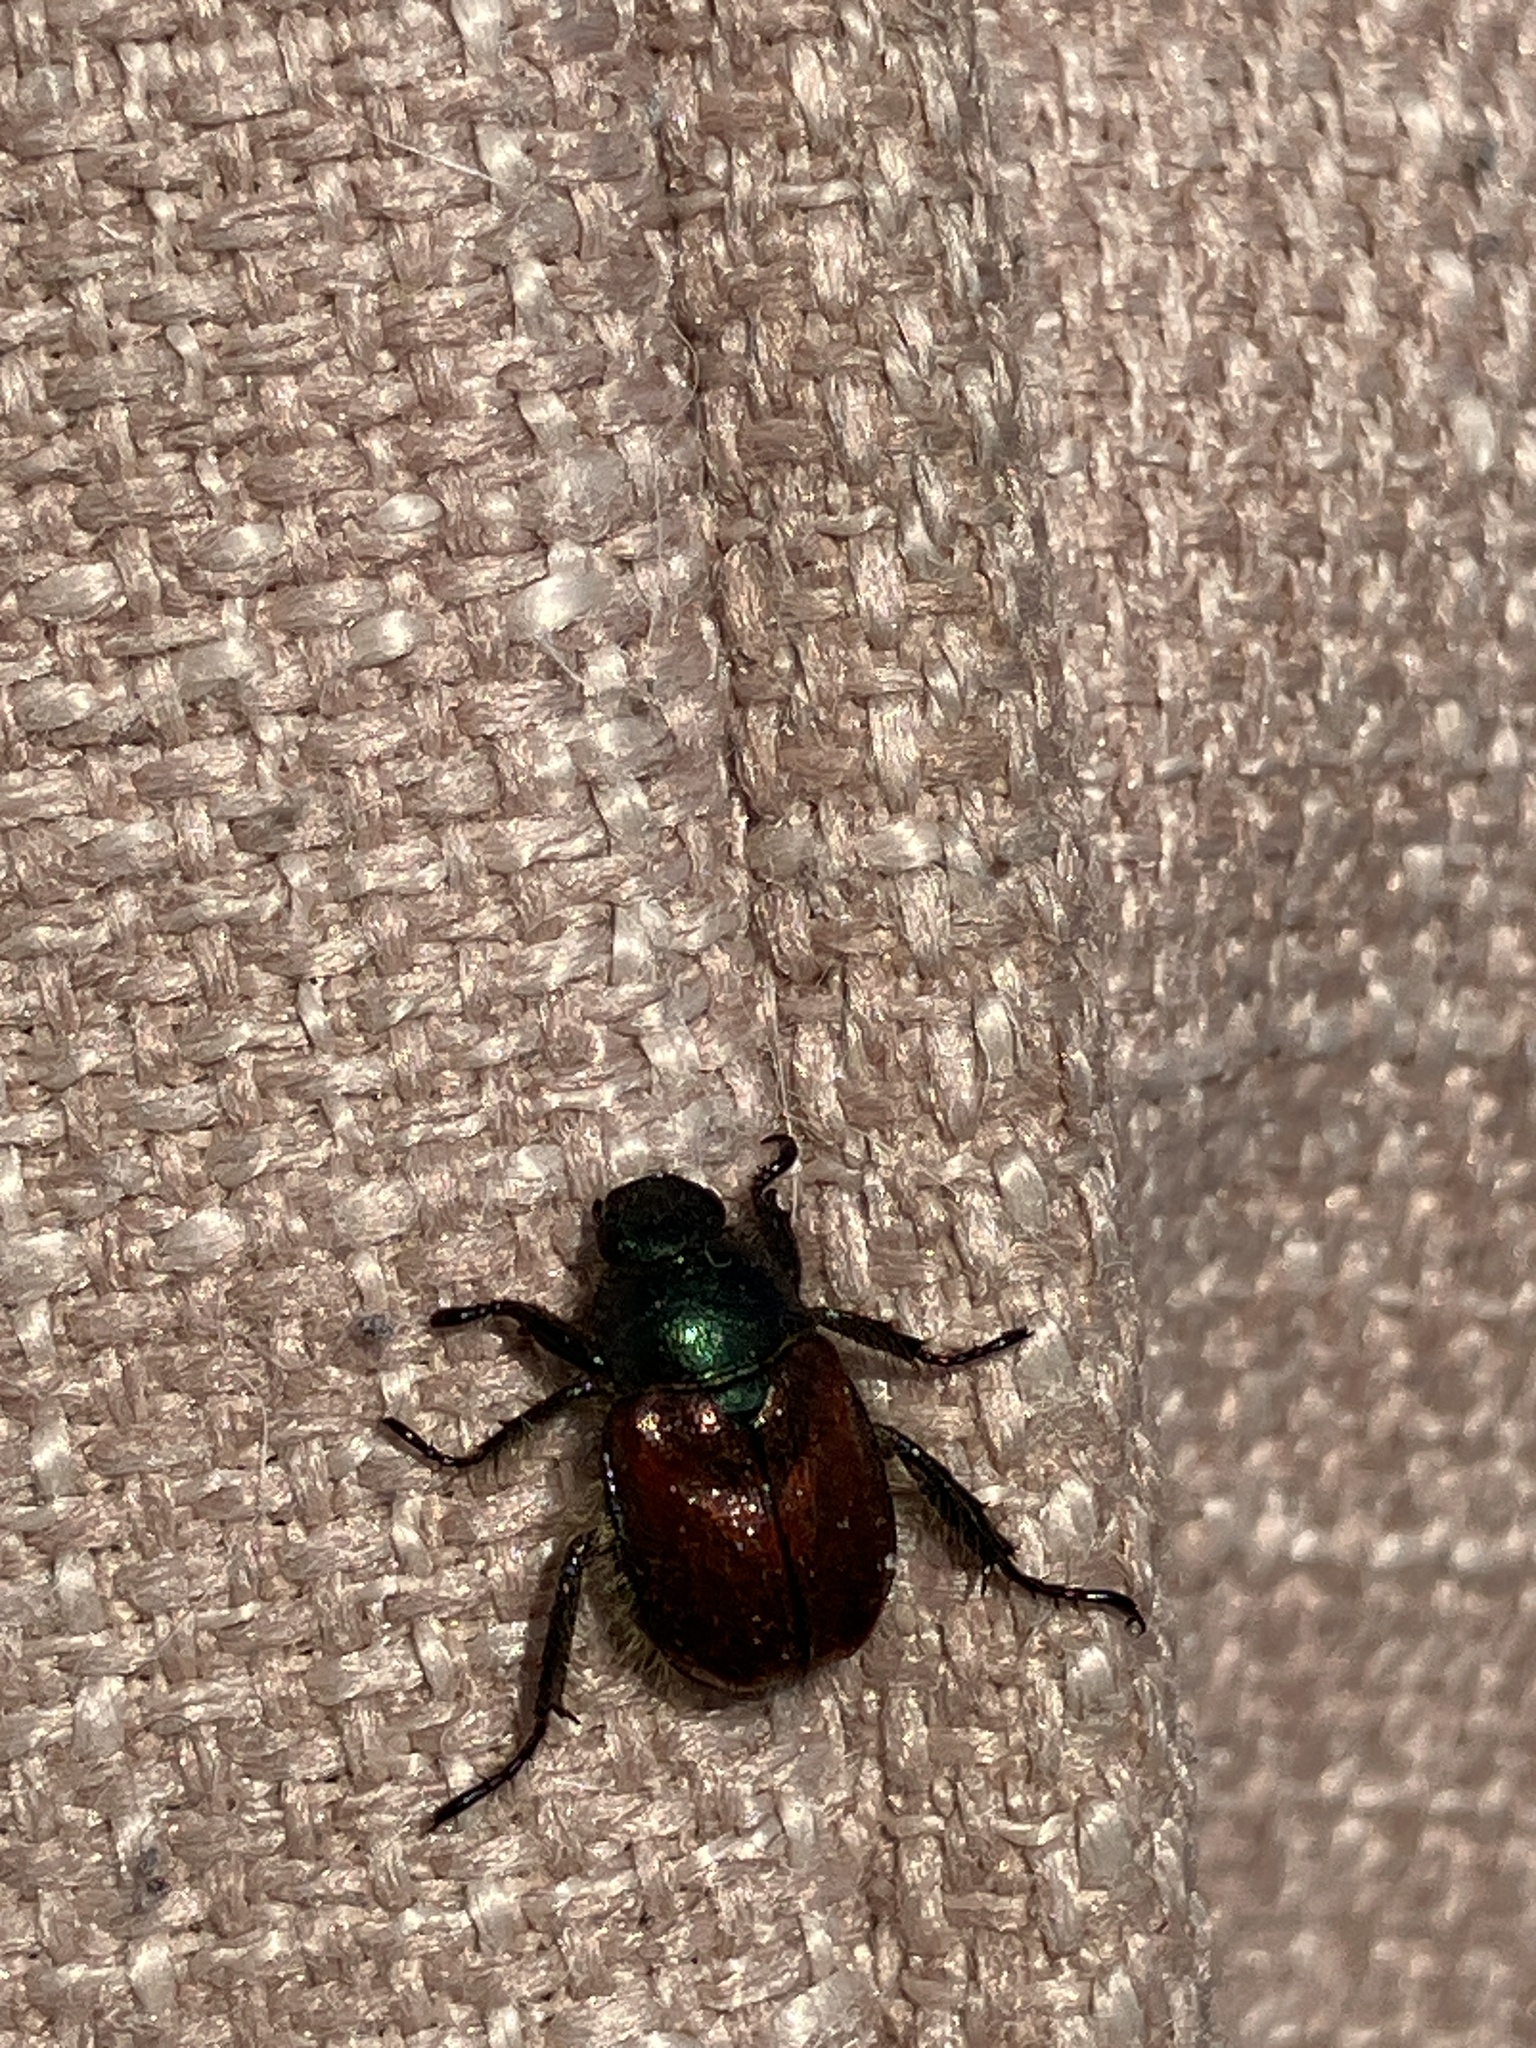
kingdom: Animalia
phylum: Arthropoda
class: Insecta
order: Coleoptera
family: Scarabaeidae
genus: Phyllopertha
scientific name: Phyllopertha horticola
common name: Garden chafer
